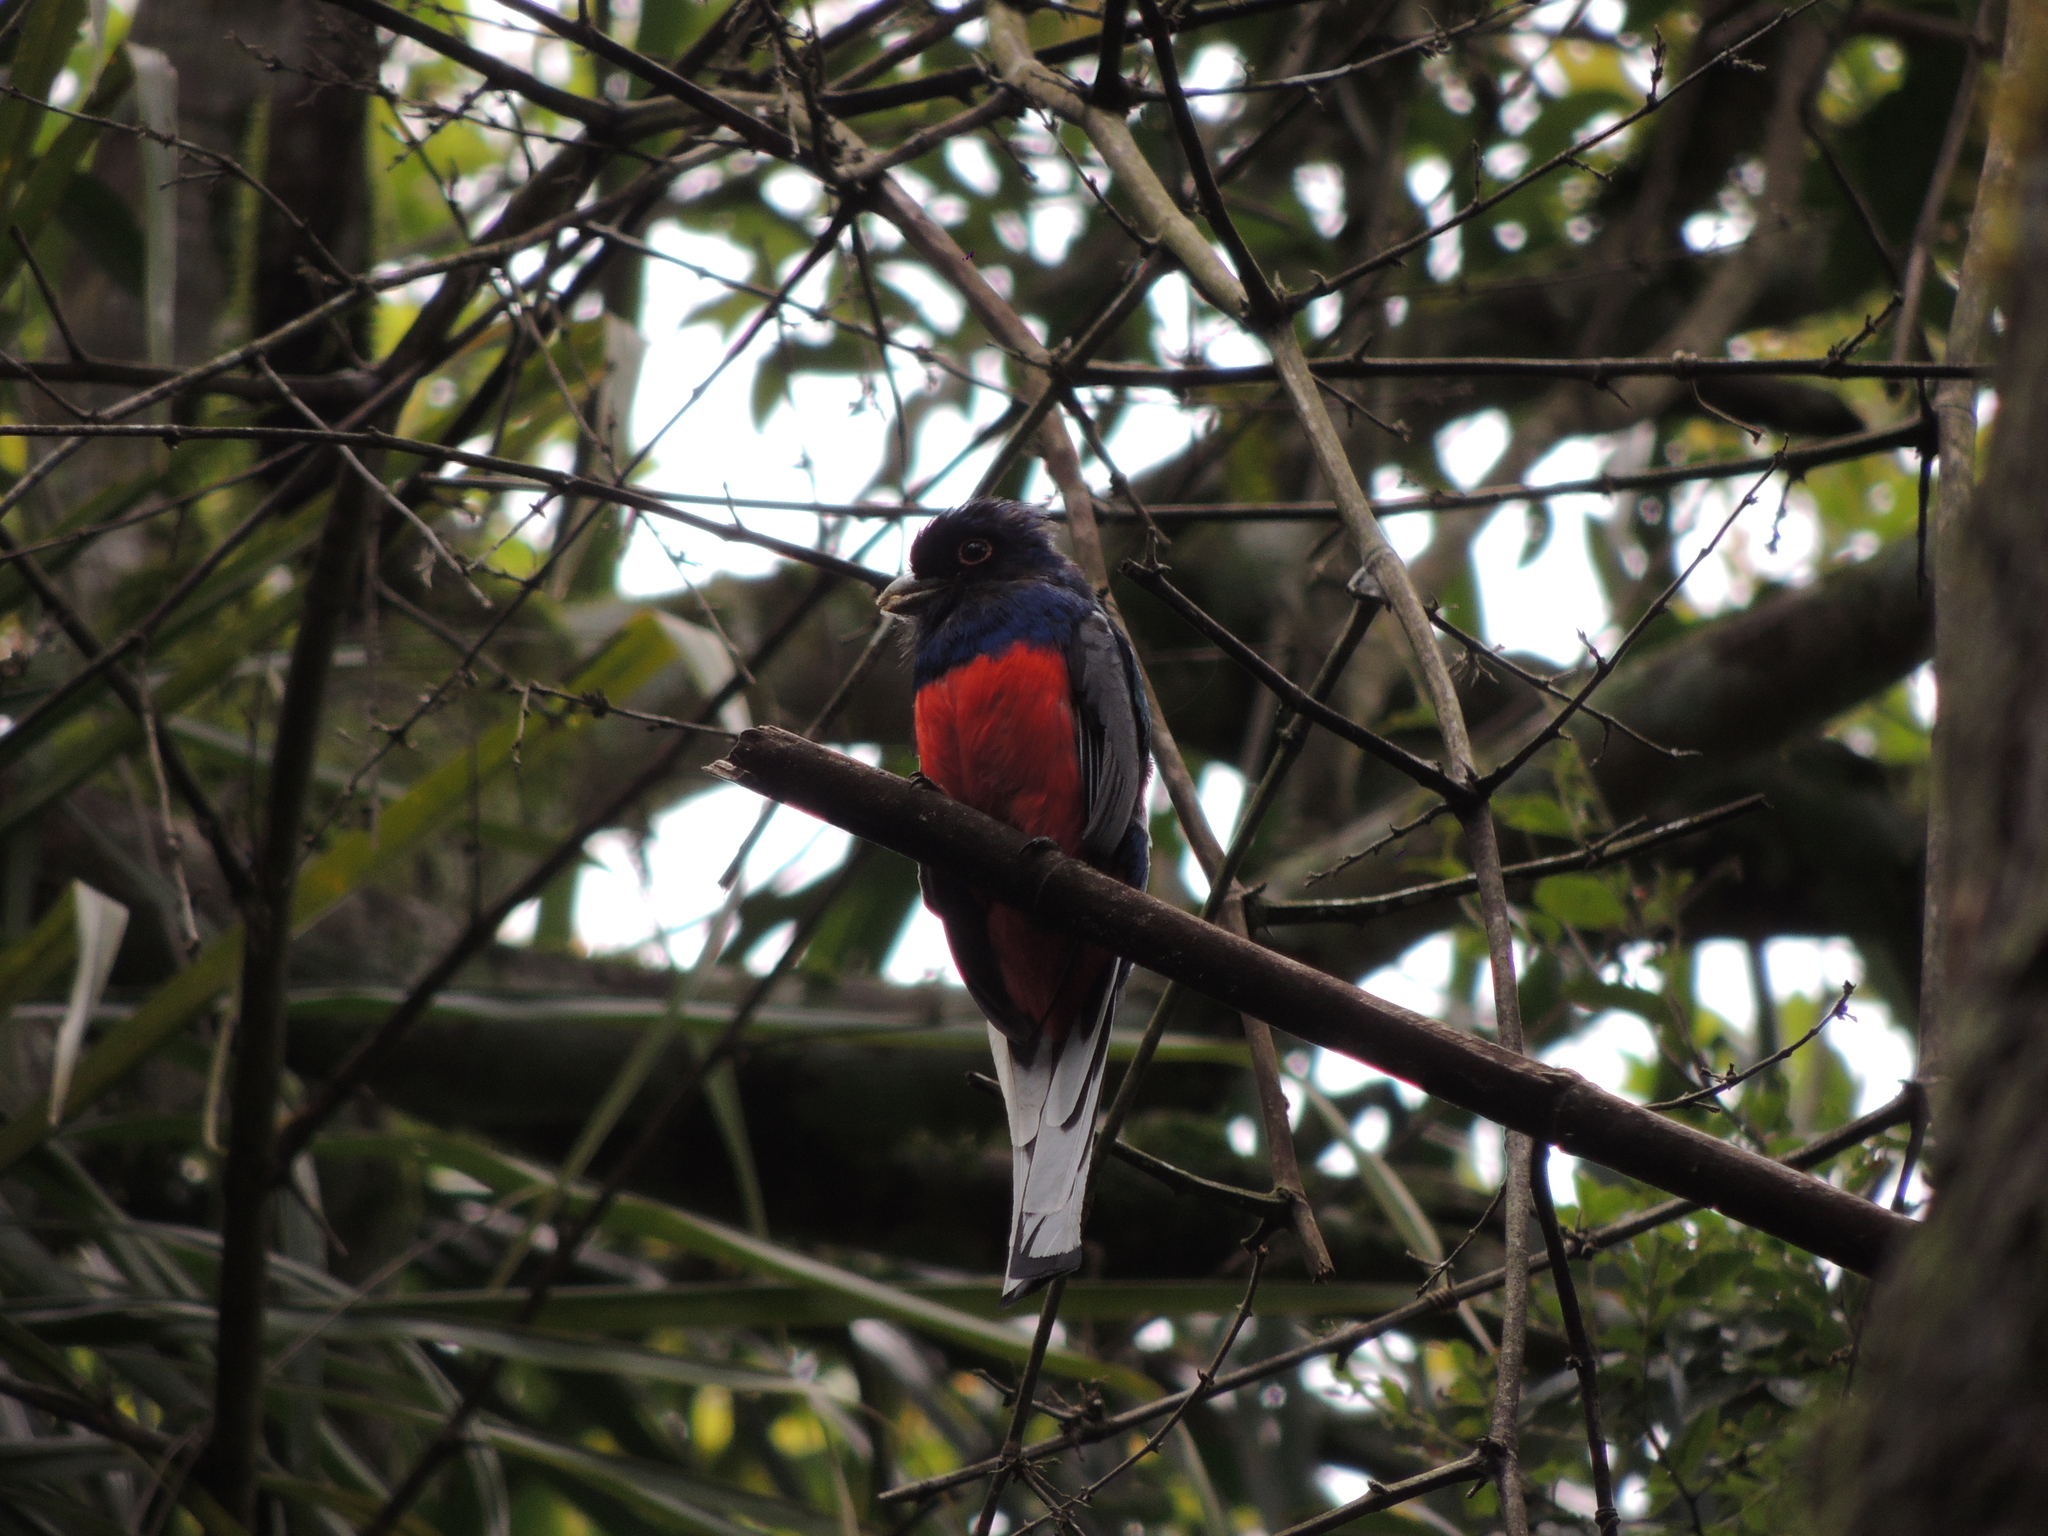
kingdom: Animalia
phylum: Chordata
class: Aves
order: Trogoniformes
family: Trogonidae
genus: Trogon
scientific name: Trogon surrucura
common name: Surucua trogon
